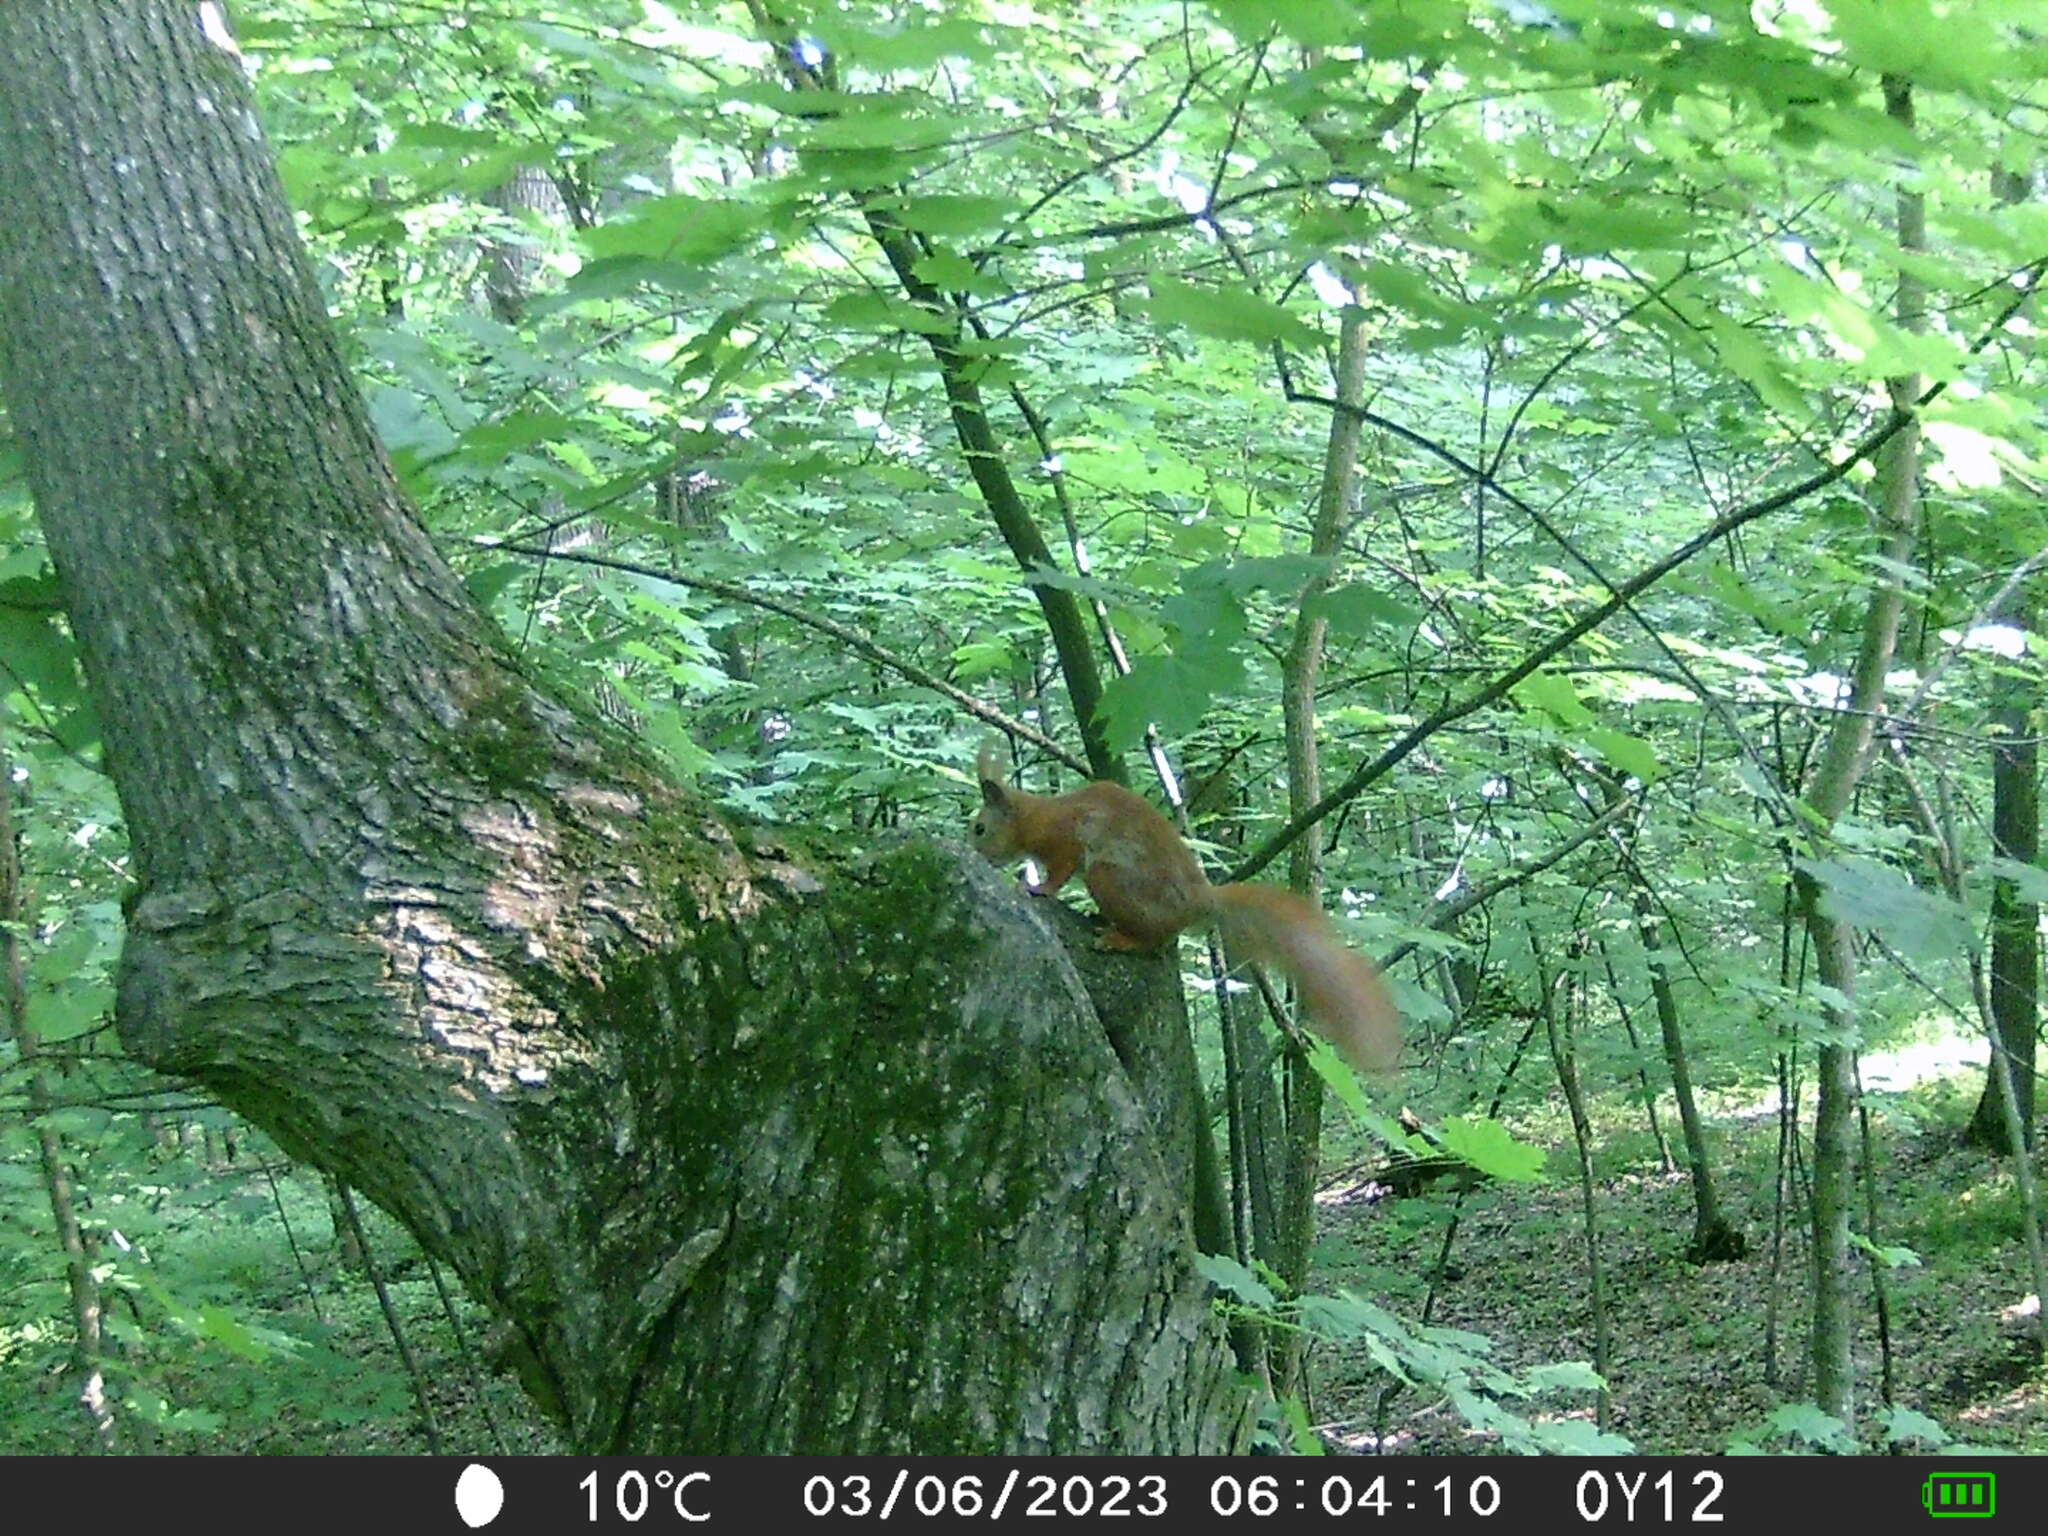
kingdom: Animalia
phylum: Chordata
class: Mammalia
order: Rodentia
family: Sciuridae
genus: Sciurus
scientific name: Sciurus vulgaris
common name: Eurasian red squirrel
